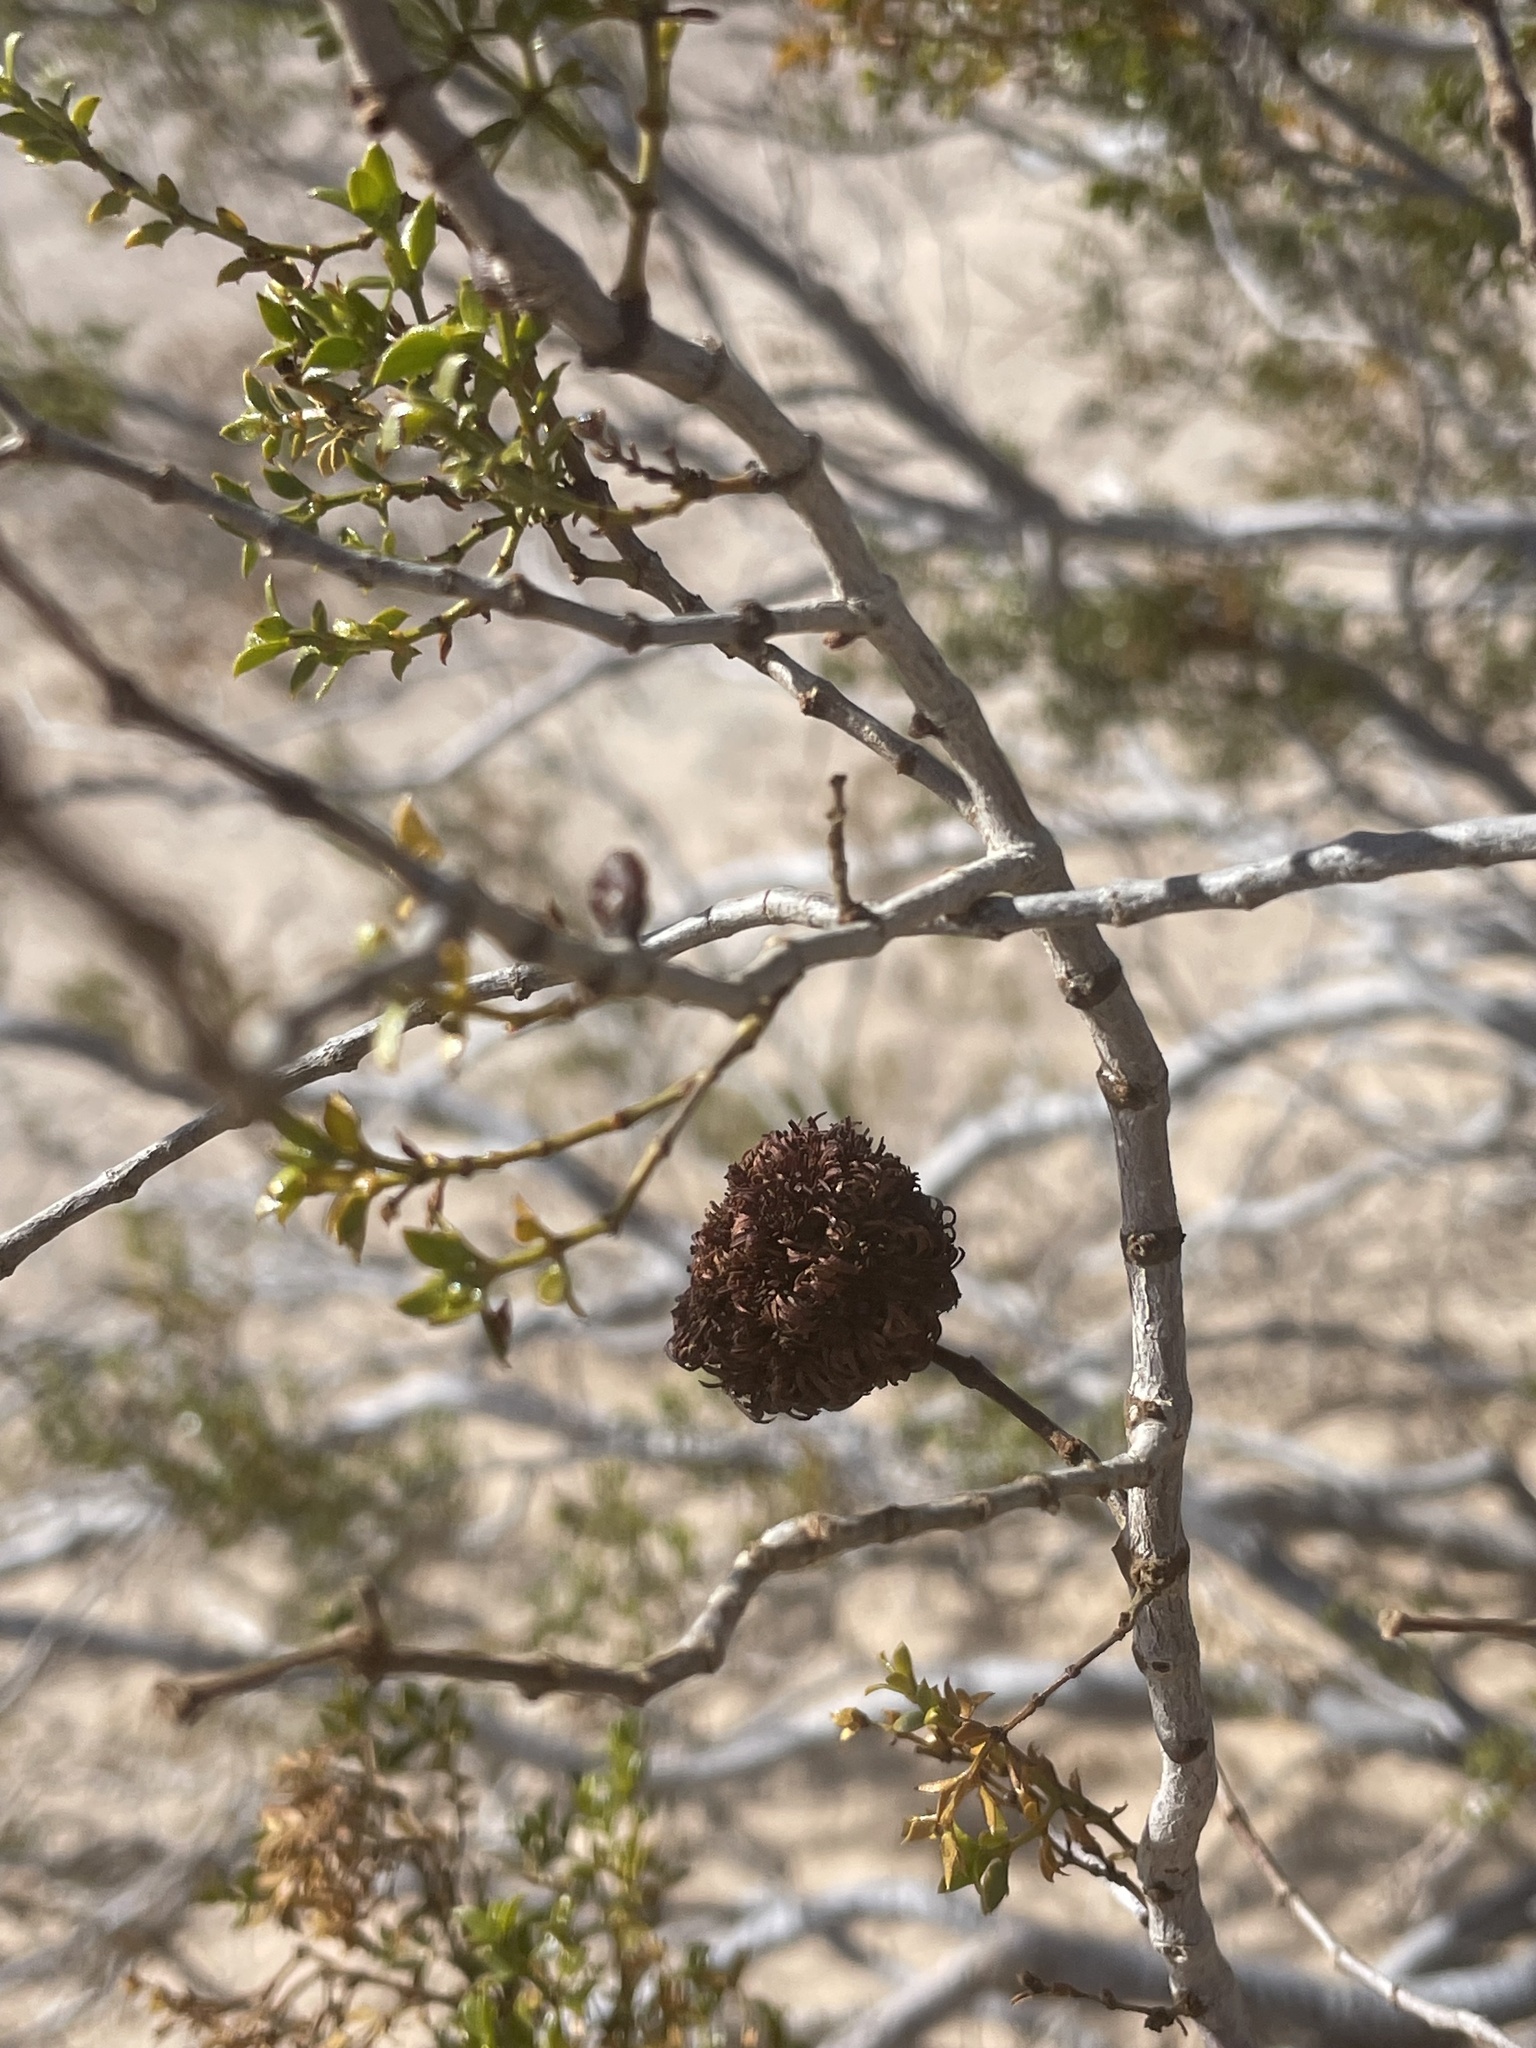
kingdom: Animalia
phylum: Arthropoda
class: Insecta
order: Diptera
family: Cecidomyiidae
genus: Asphondylia
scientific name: Asphondylia auripila
